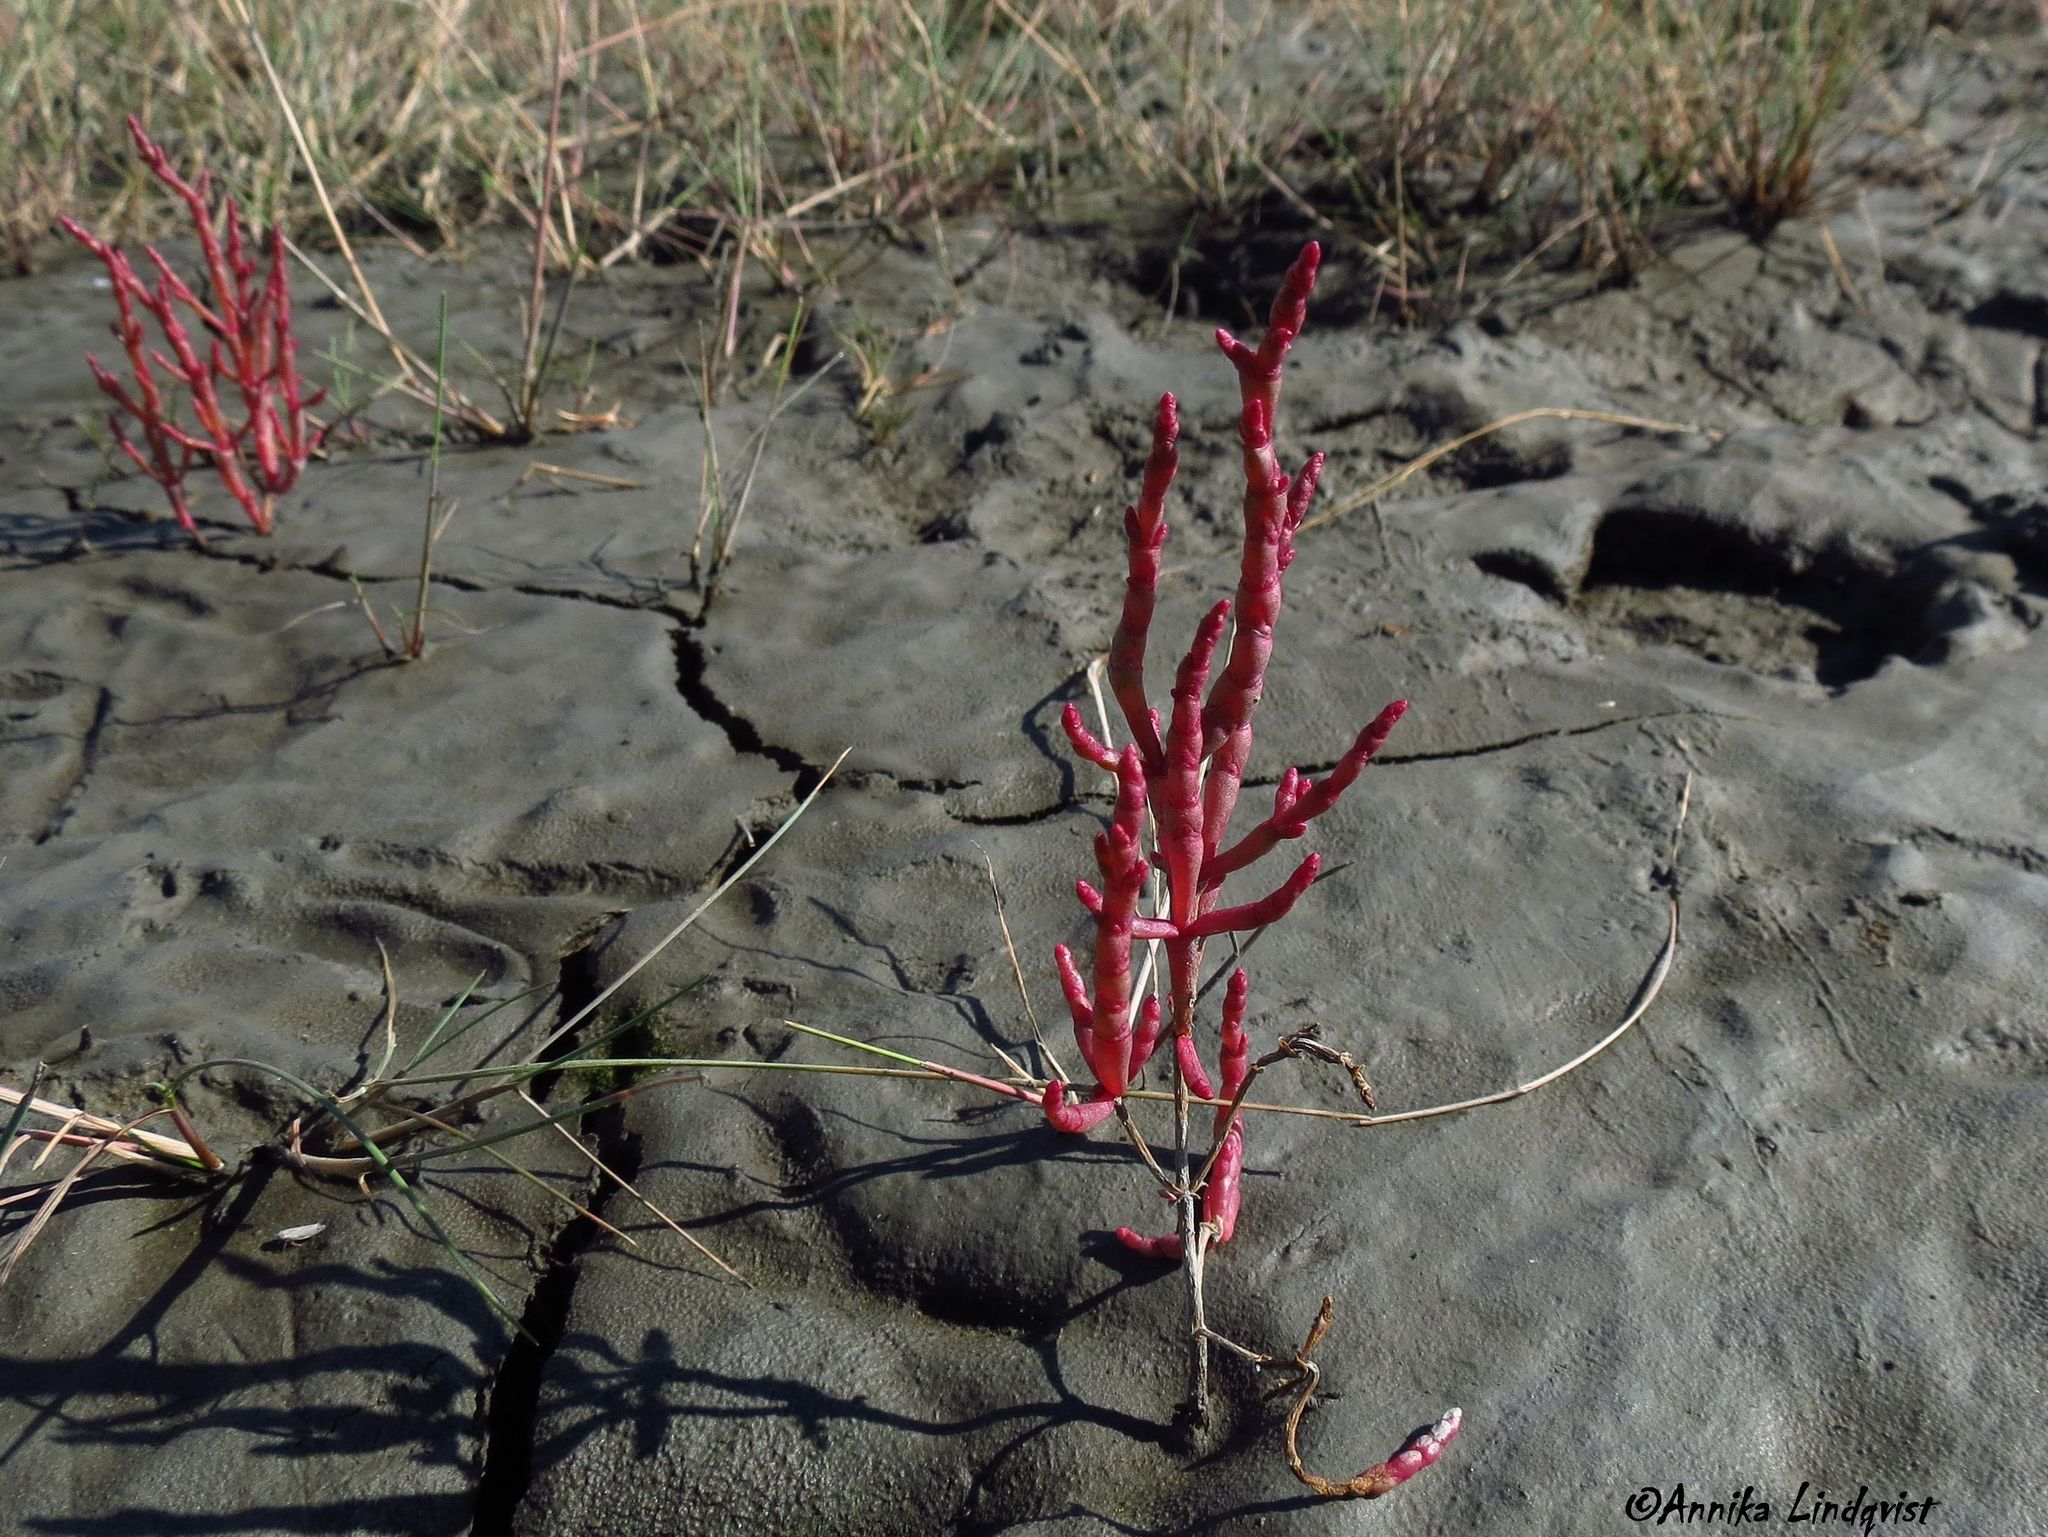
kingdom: Plantae
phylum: Tracheophyta
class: Magnoliopsida
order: Caryophyllales
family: Amaranthaceae
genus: Salicornia
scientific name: Salicornia virginica
